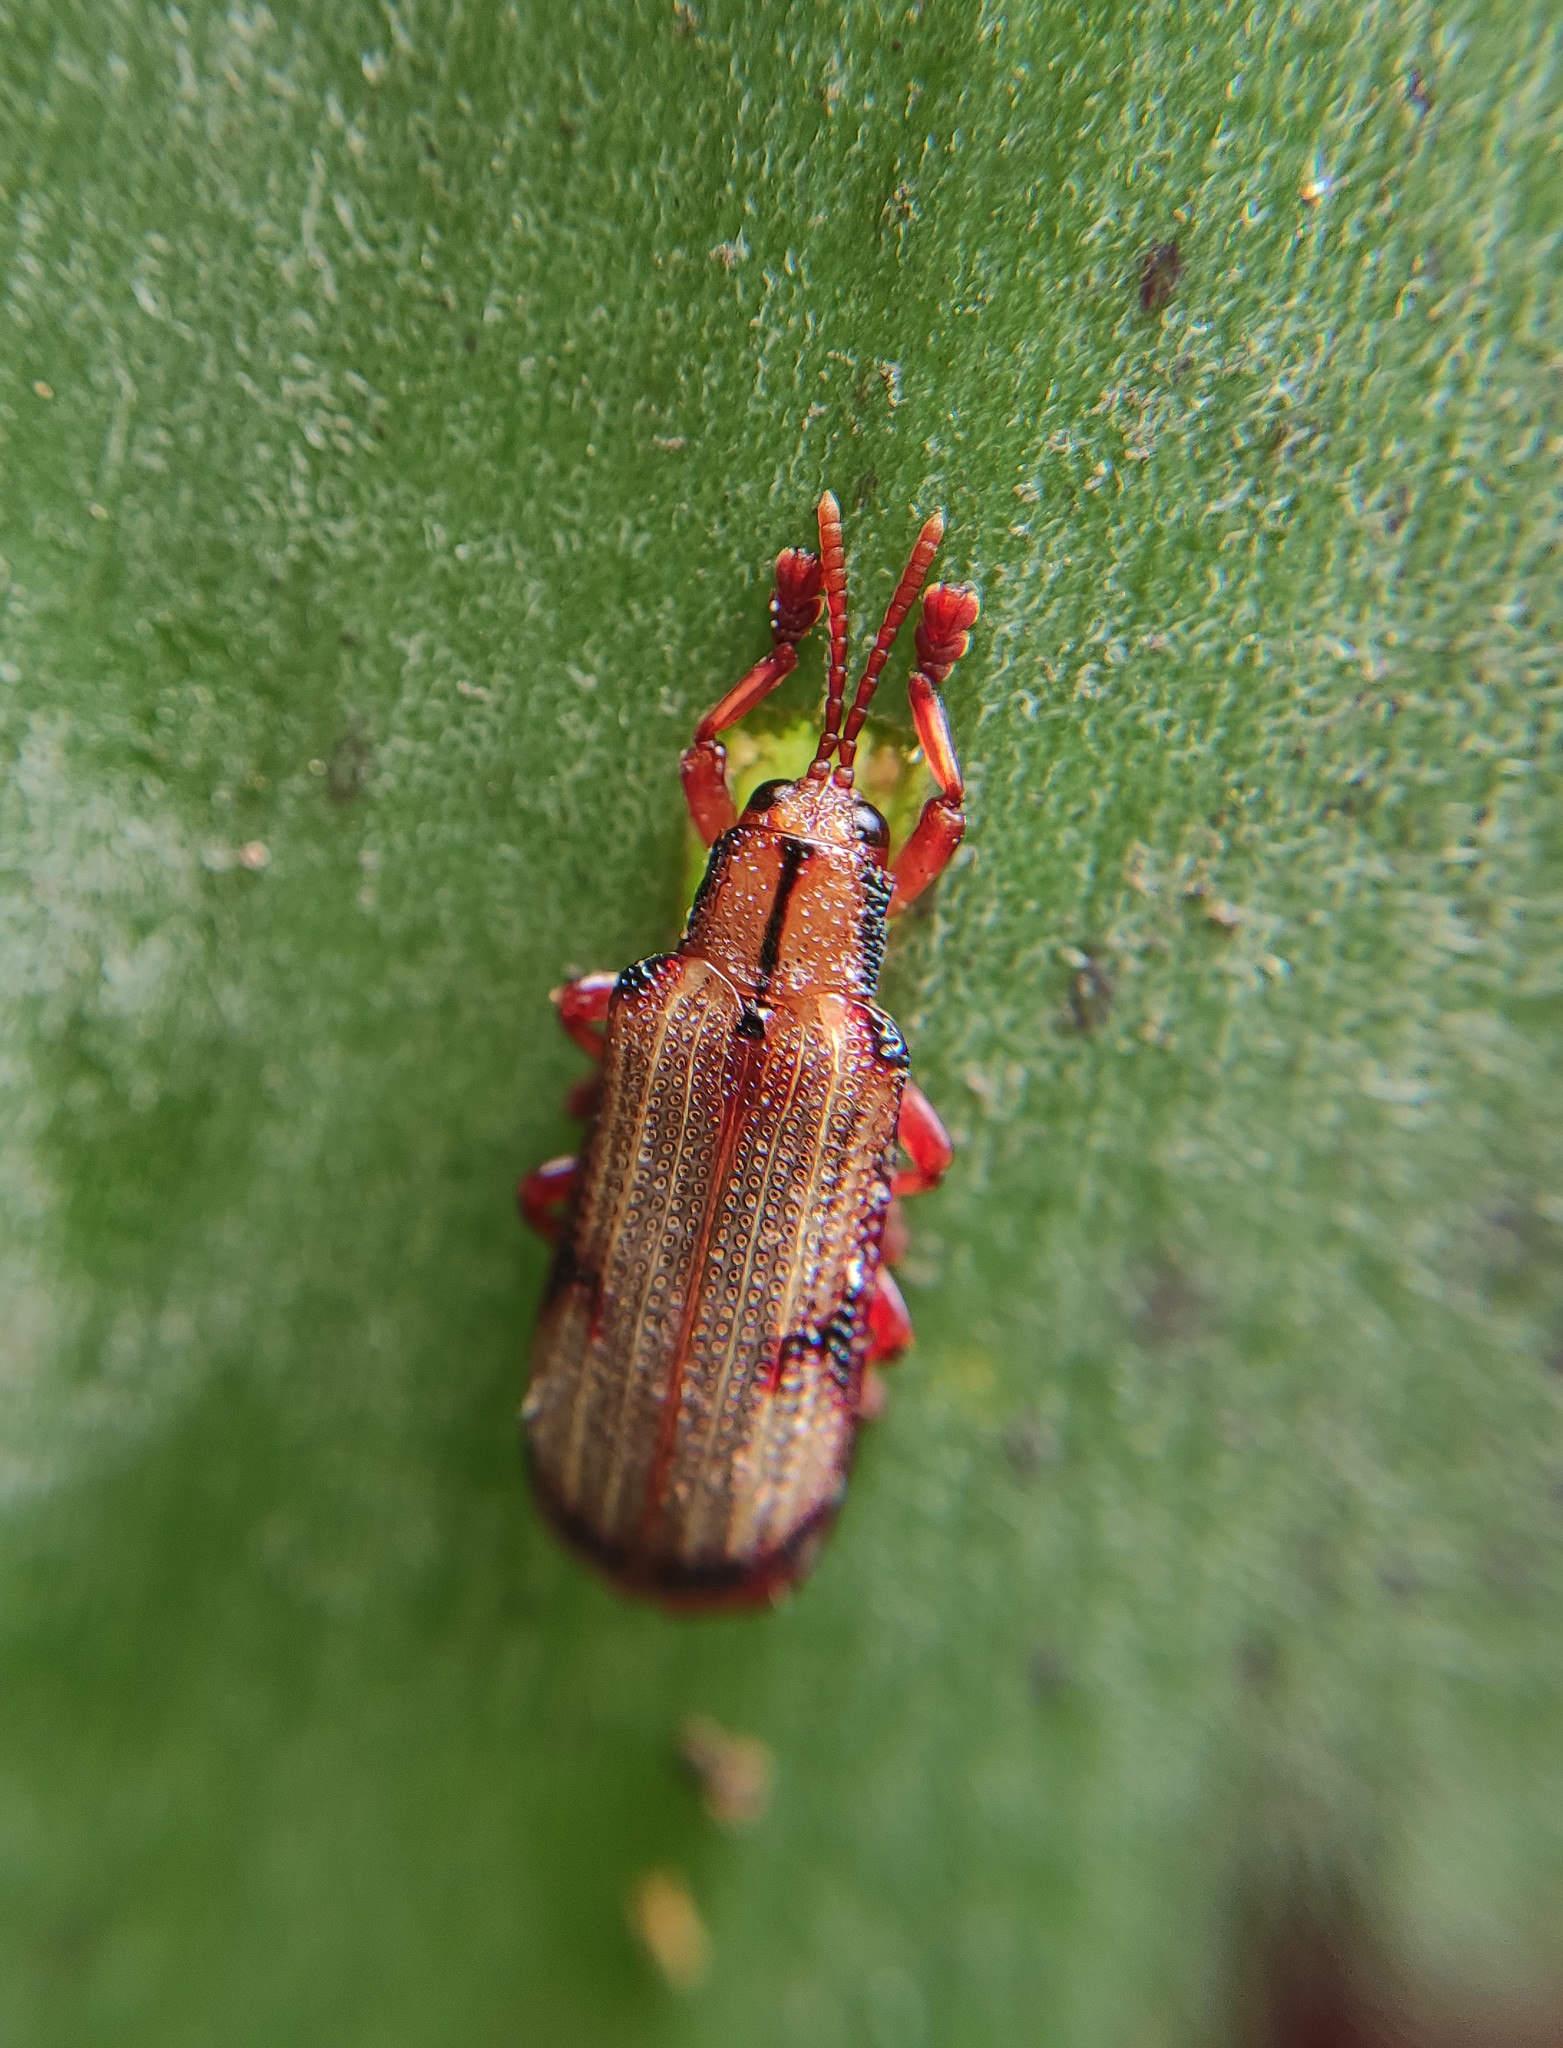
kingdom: Animalia
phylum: Arthropoda
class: Insecta
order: Coleoptera
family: Chrysomelidae
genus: Acentroptera
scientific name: Acentroptera norrisii
